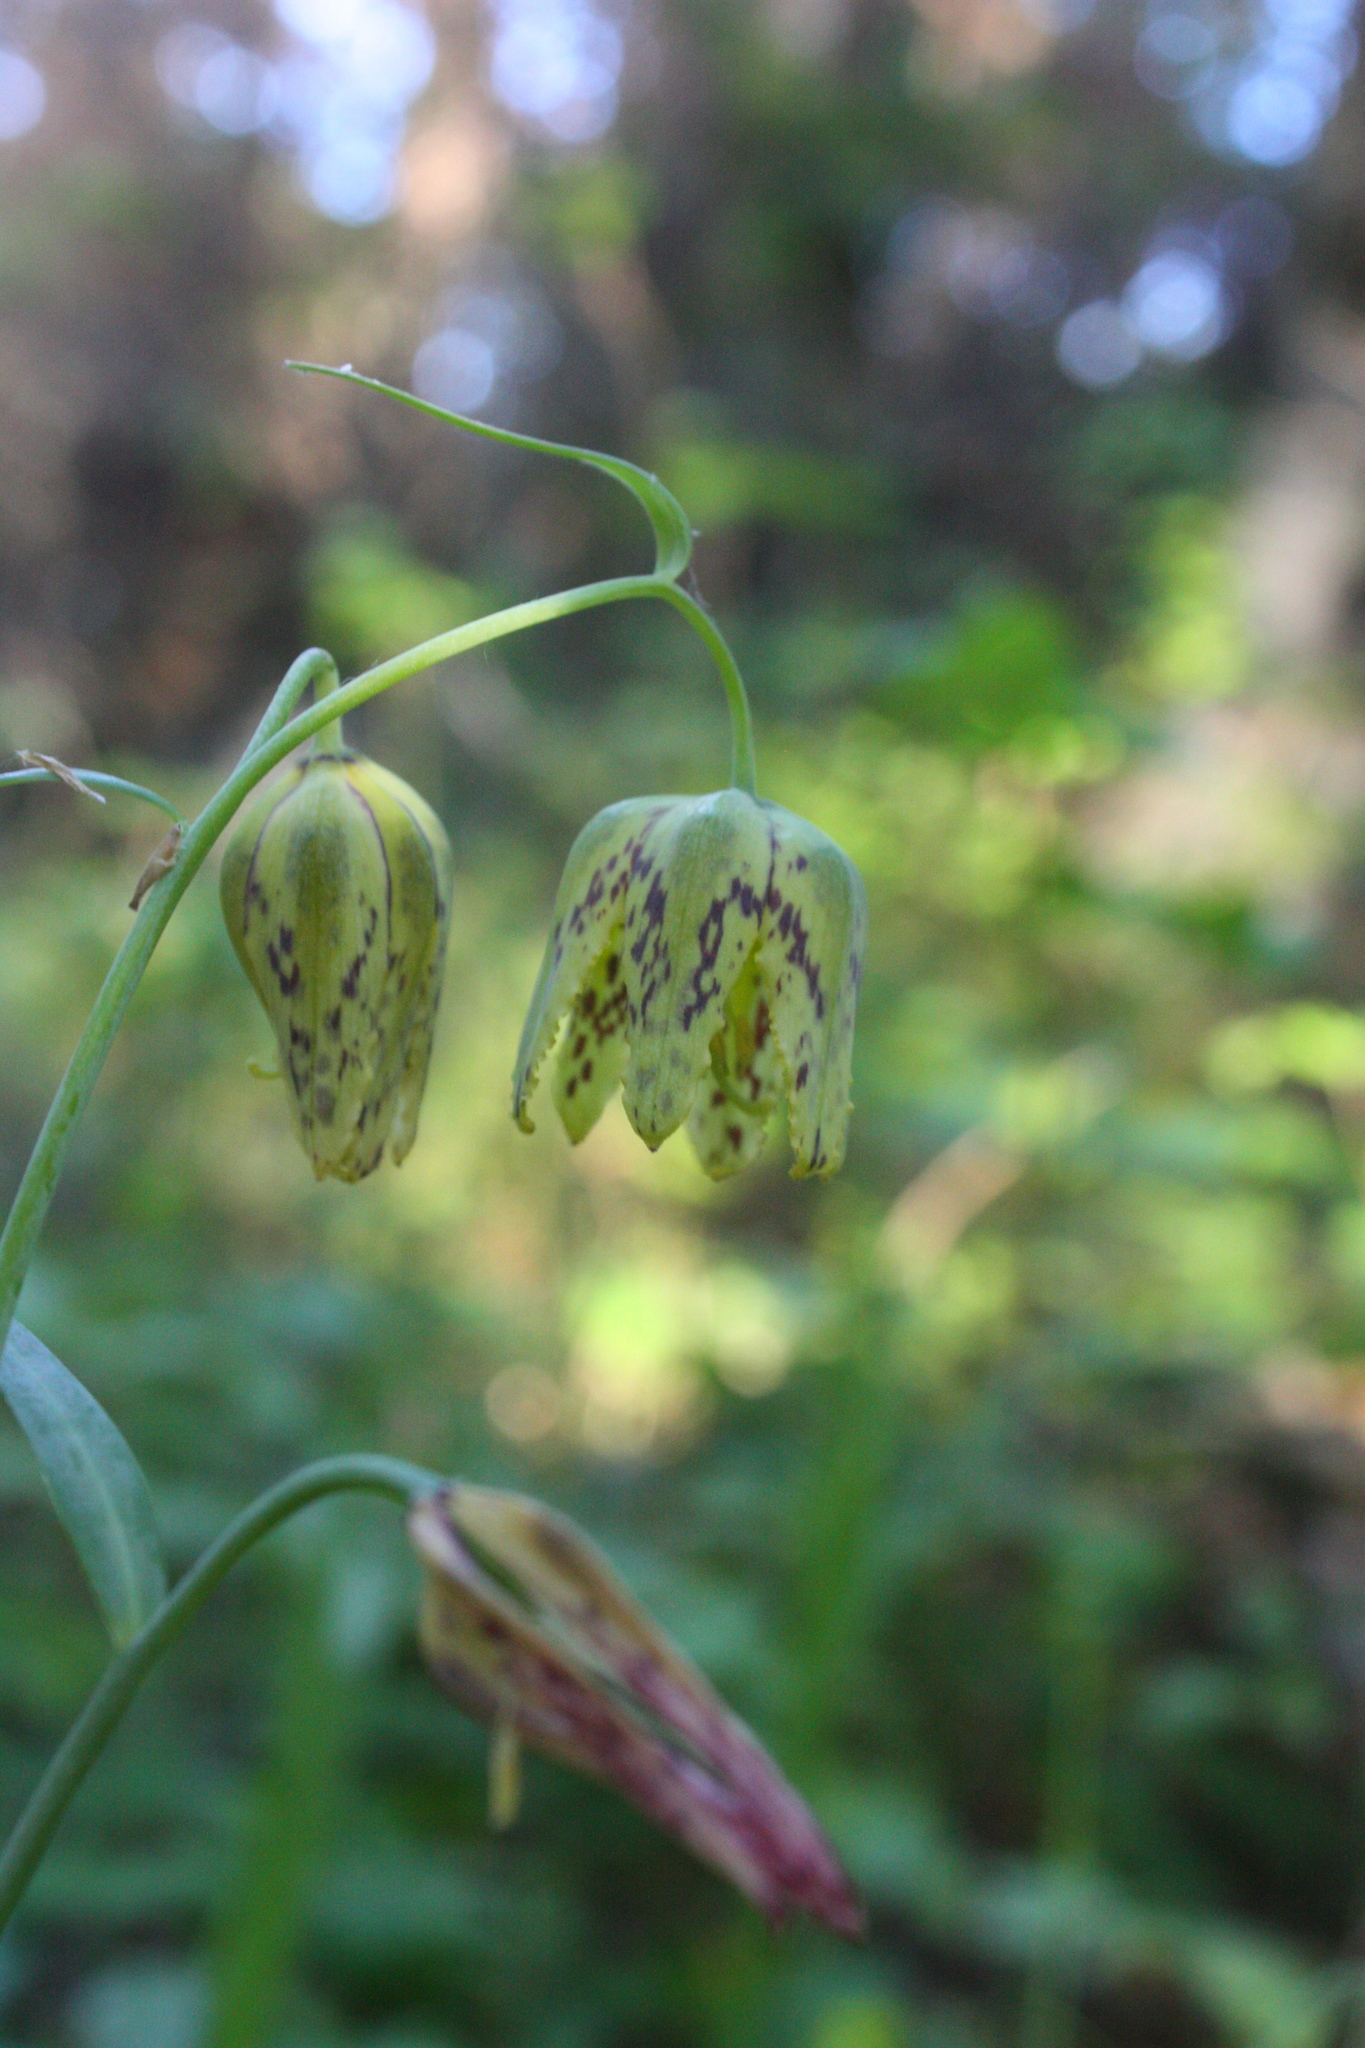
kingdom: Plantae
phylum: Tracheophyta
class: Liliopsida
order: Liliales
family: Liliaceae
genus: Fritillaria
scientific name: Fritillaria affinis
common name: Ojai fritillary
